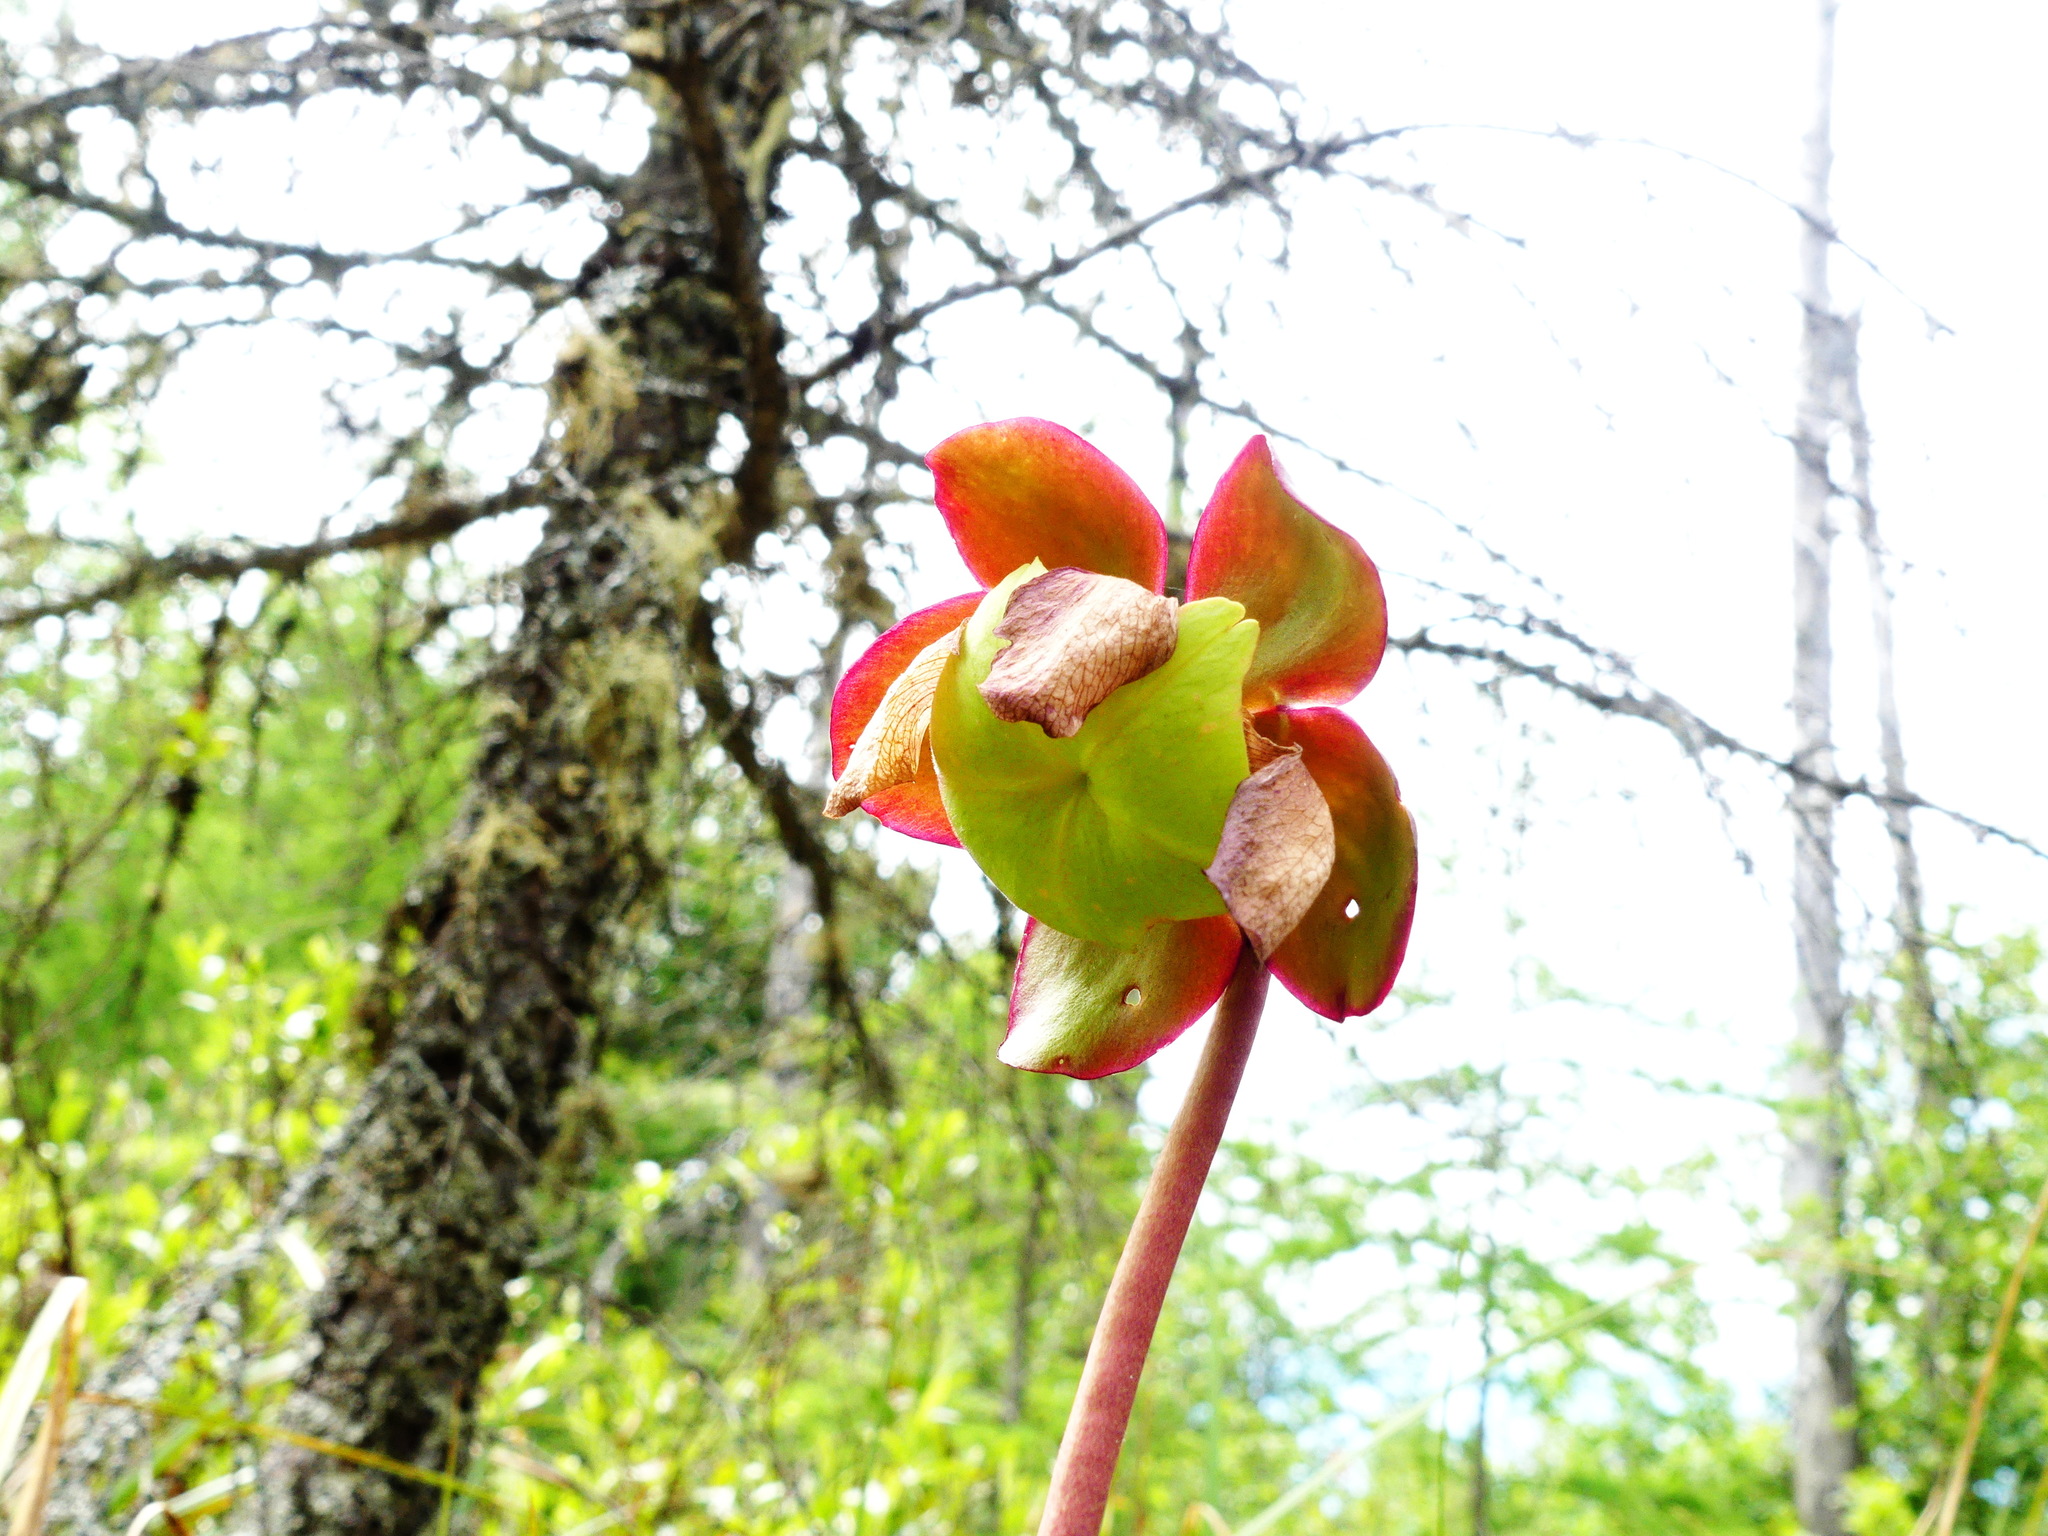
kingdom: Plantae
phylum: Tracheophyta
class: Magnoliopsida
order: Ericales
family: Sarraceniaceae
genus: Sarracenia
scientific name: Sarracenia purpurea
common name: Pitcherplant
